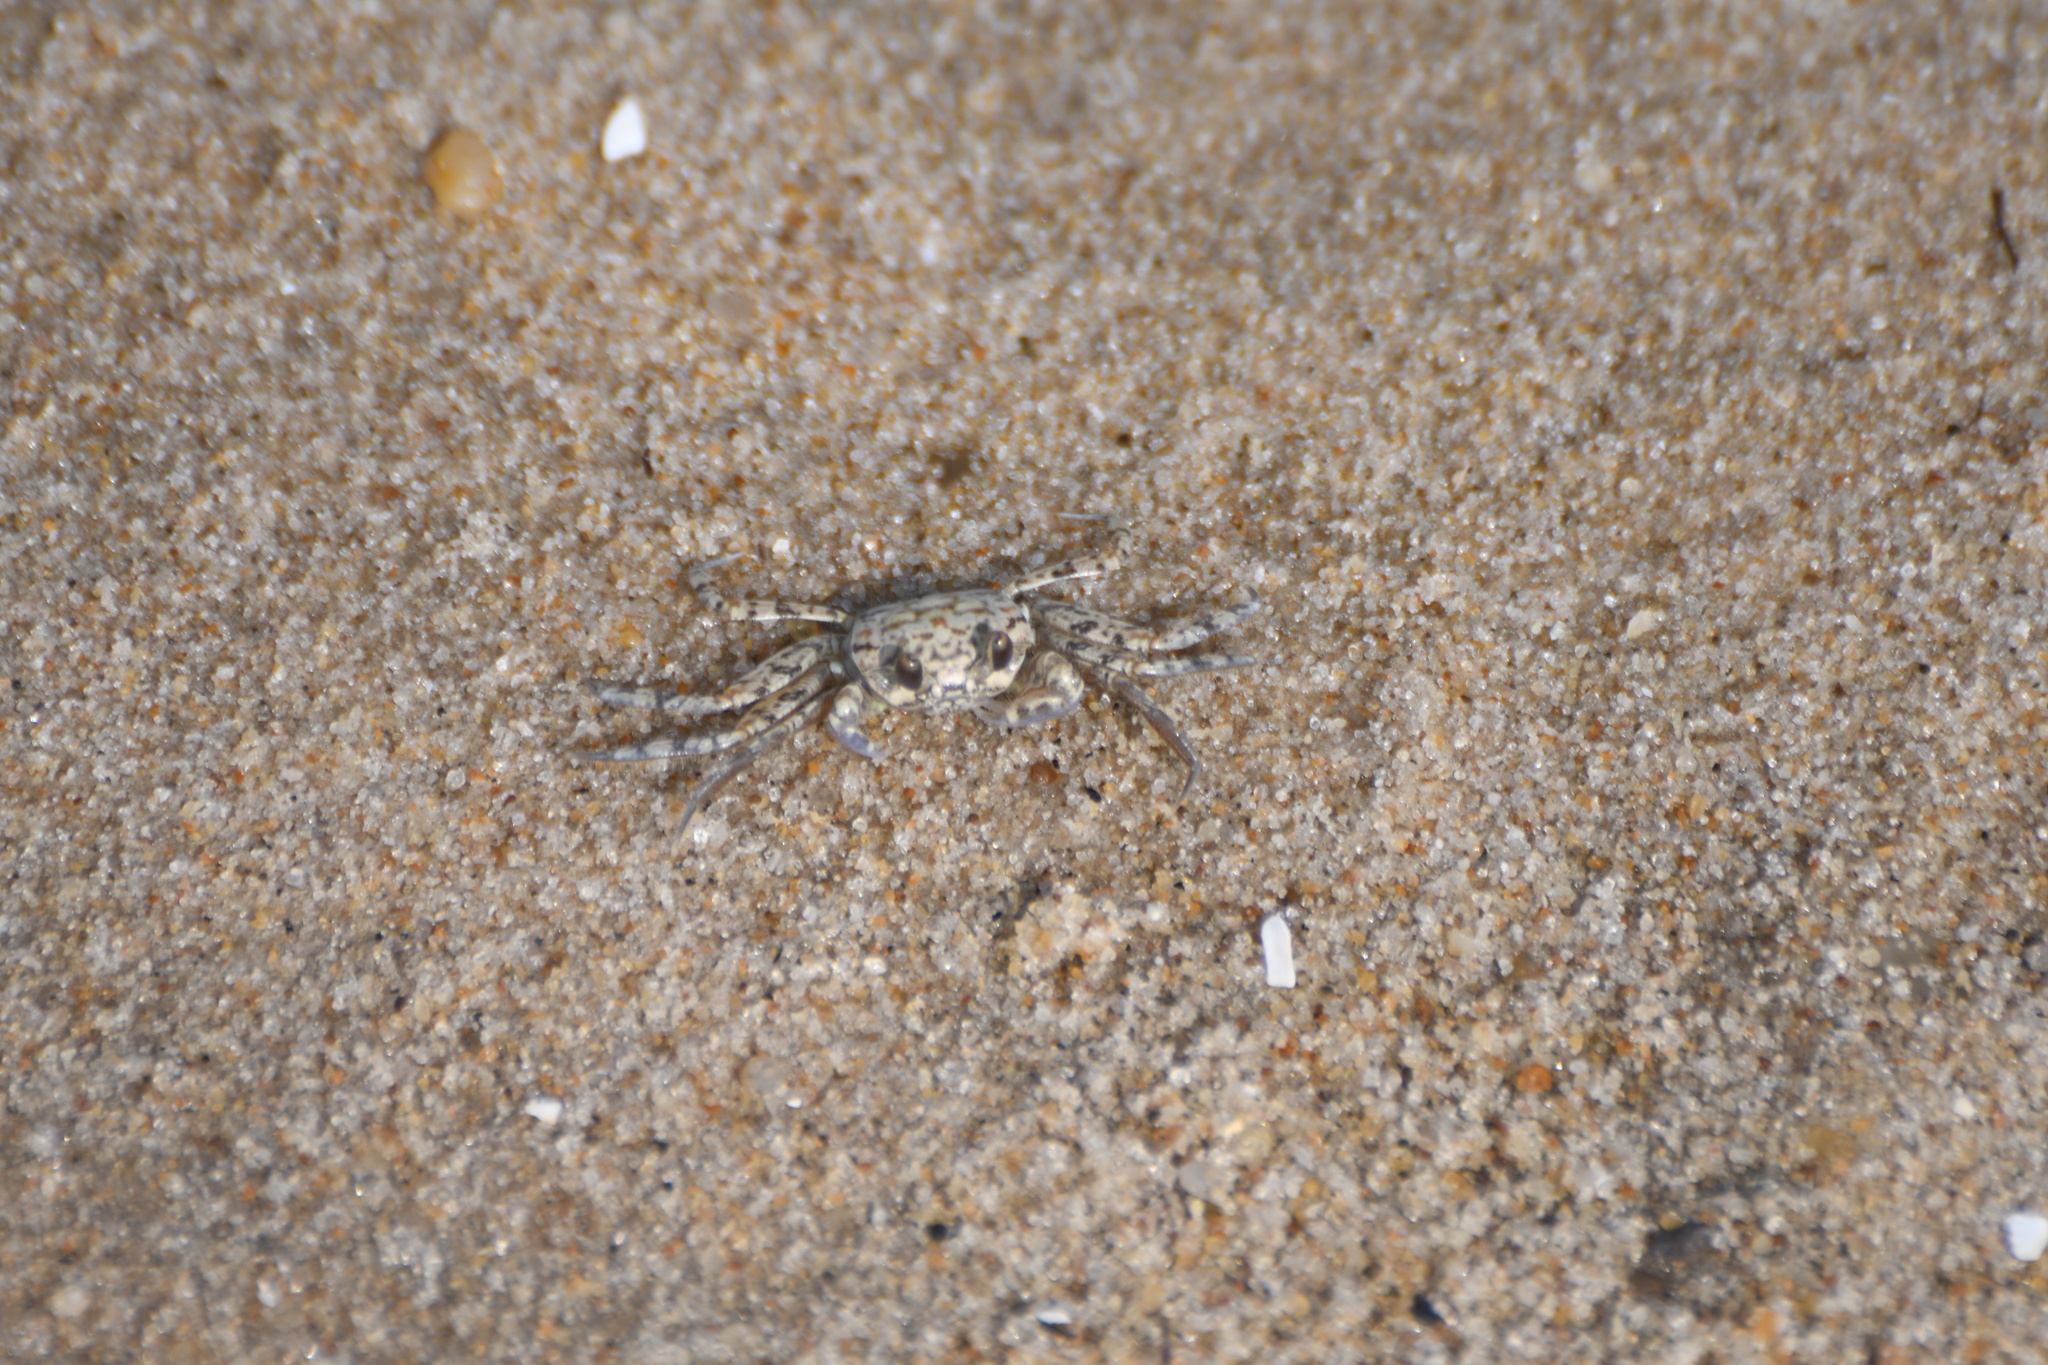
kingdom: Animalia
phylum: Arthropoda
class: Malacostraca
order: Decapoda
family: Ocypodidae
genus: Ocypode
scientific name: Ocypode quadrata
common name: Ghost crab
